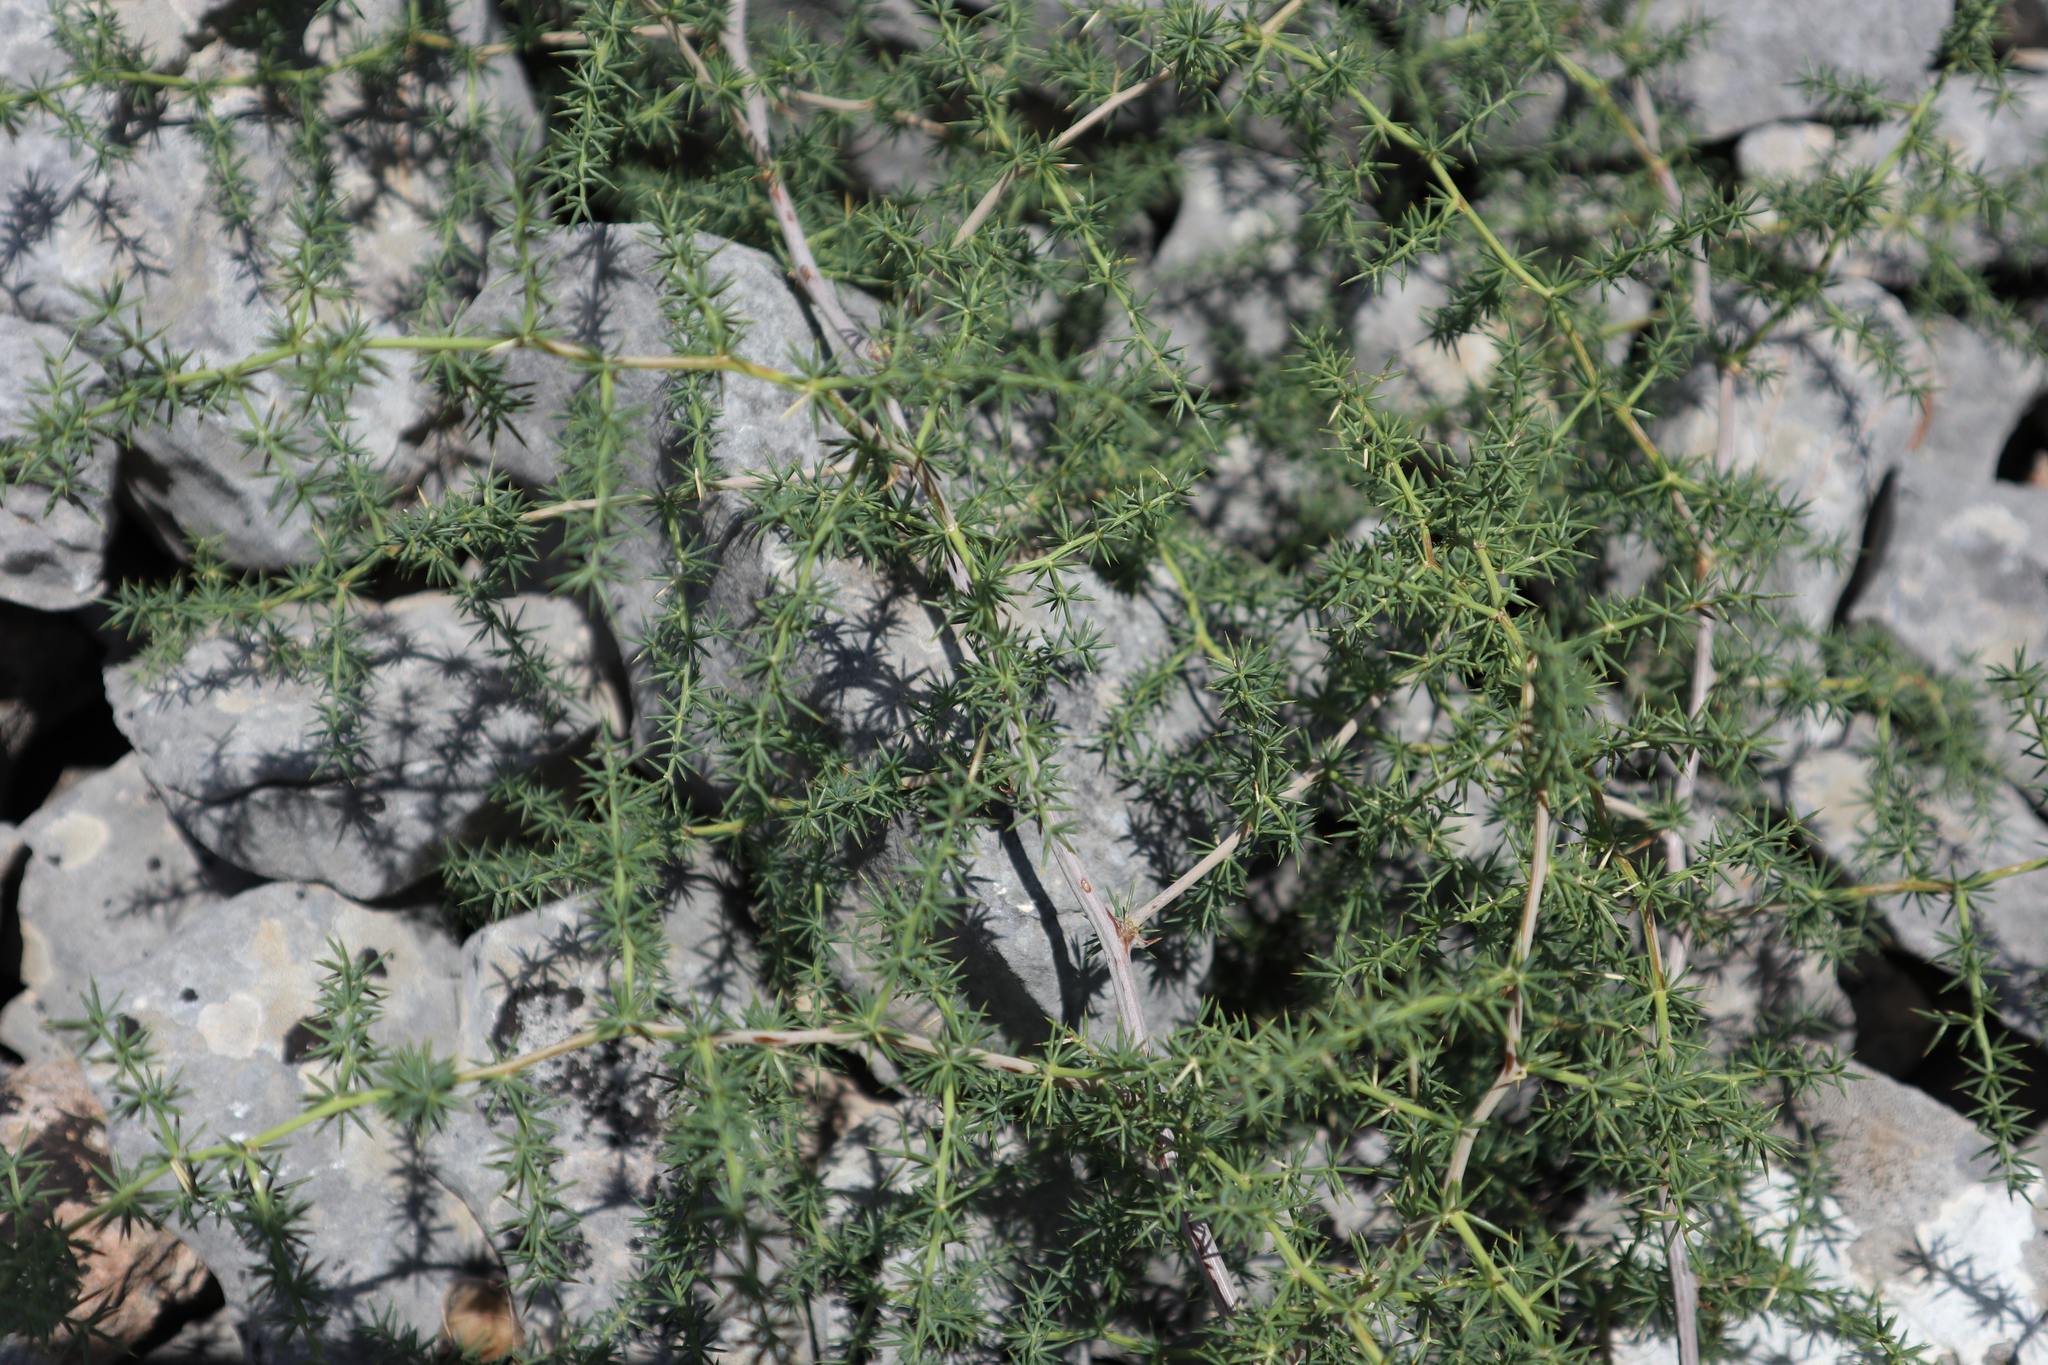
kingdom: Plantae
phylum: Tracheophyta
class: Liliopsida
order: Asparagales
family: Asparagaceae
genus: Asparagus
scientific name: Asparagus acutifolius
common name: Wild asparagus
